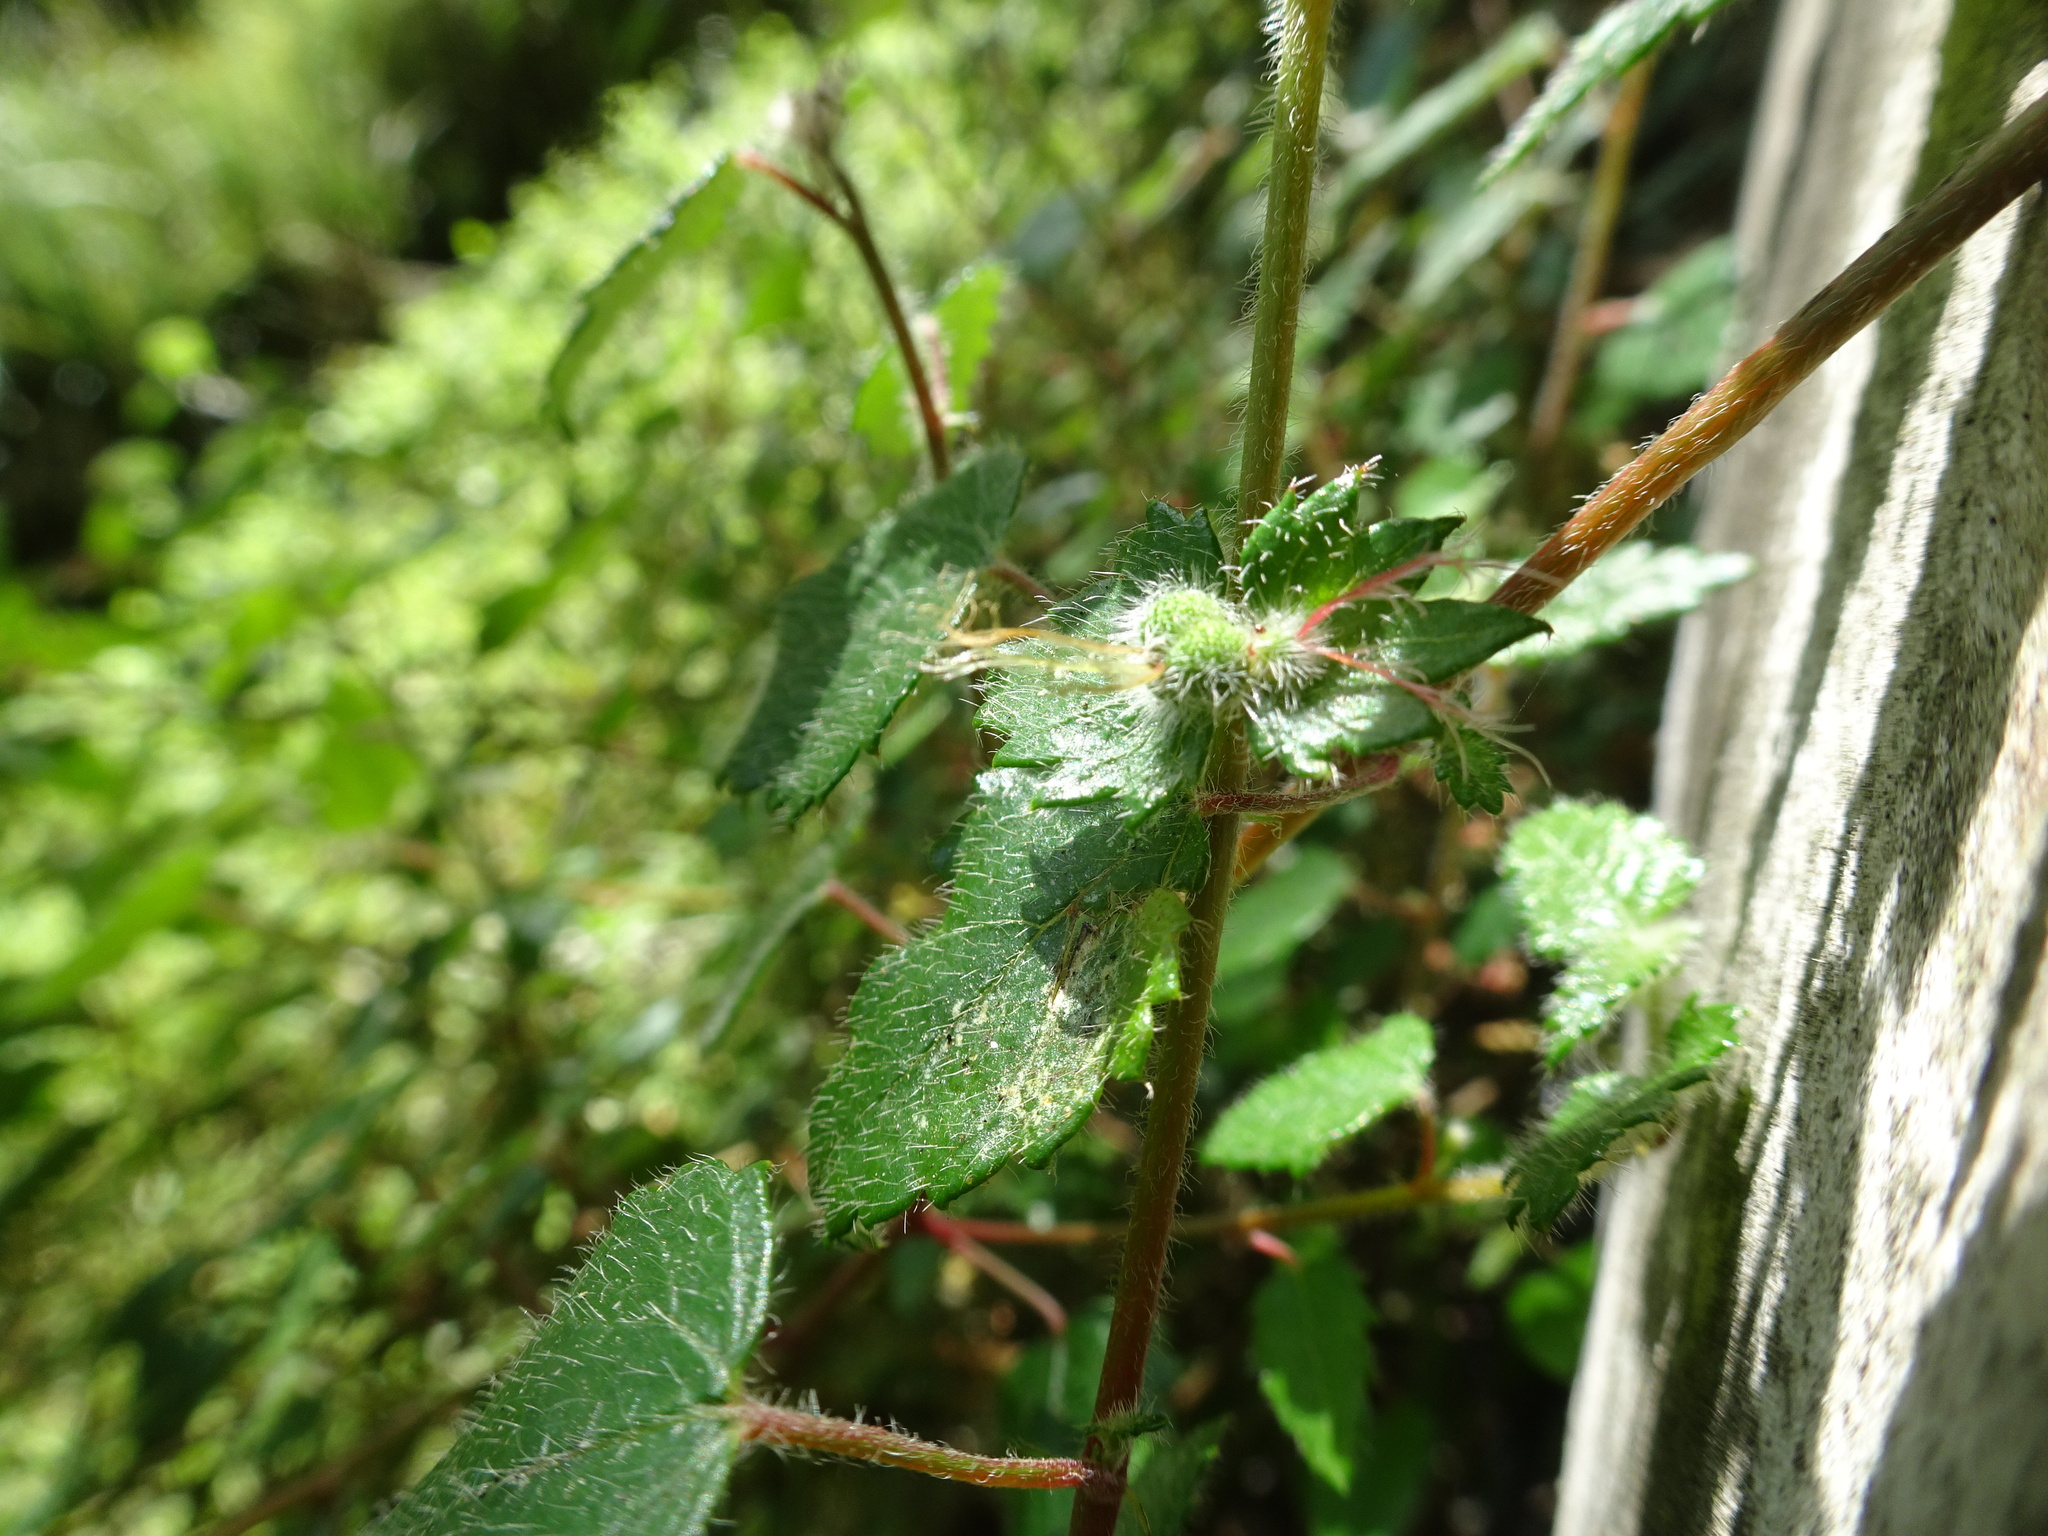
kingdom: Plantae
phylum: Tracheophyta
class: Magnoliopsida
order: Malpighiales
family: Euphorbiaceae
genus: Bernardia
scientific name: Bernardia corensis
